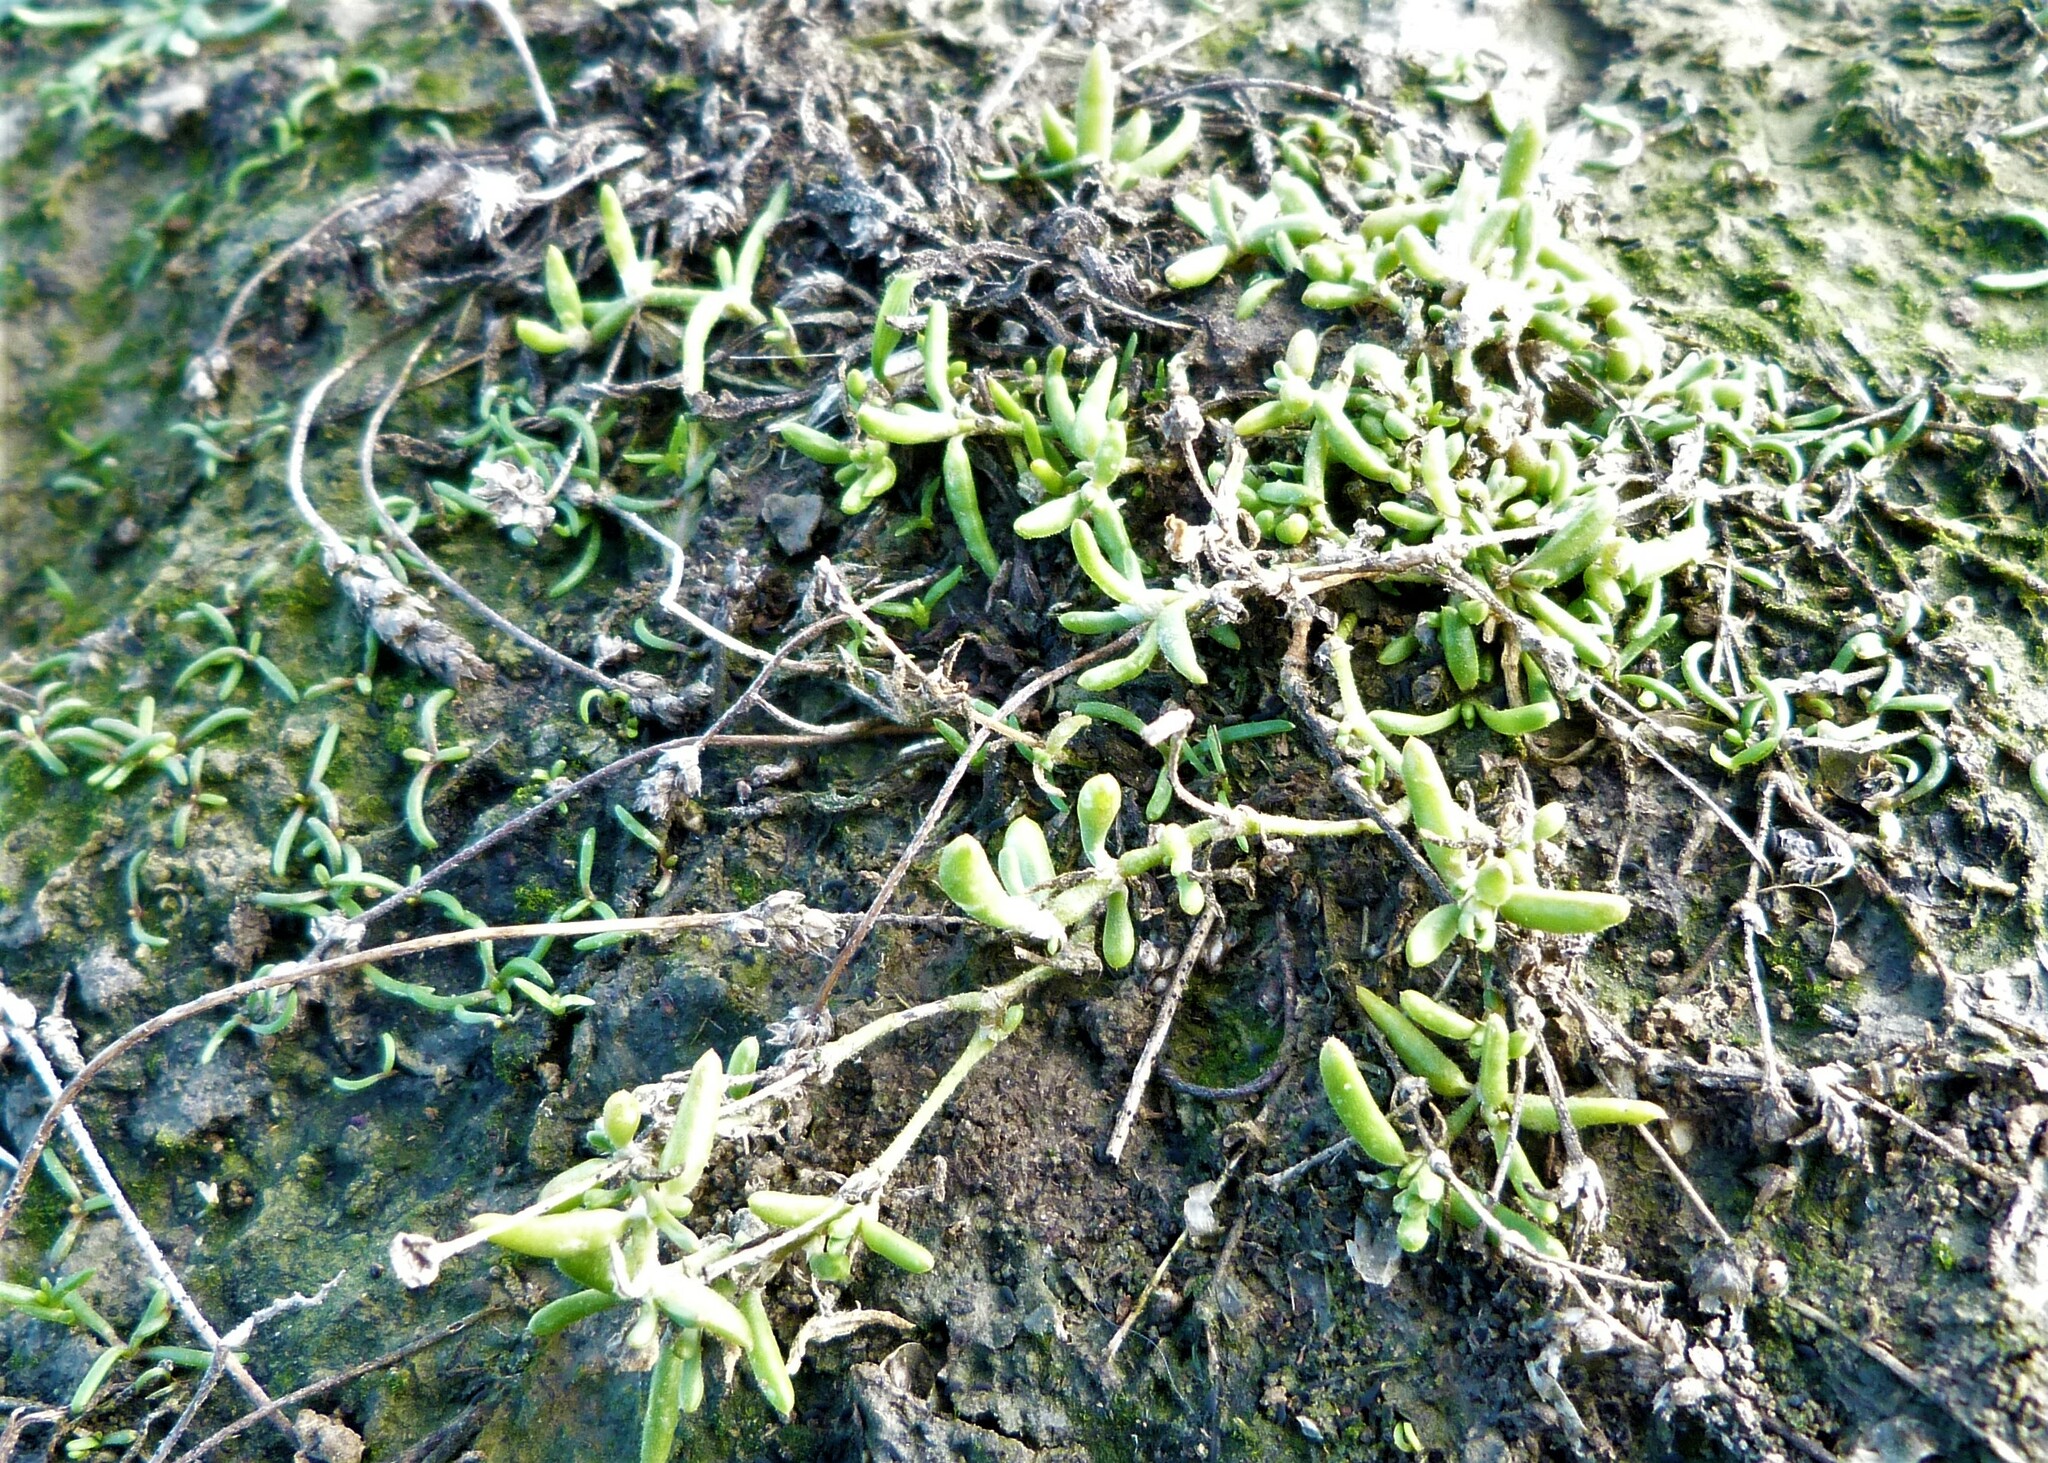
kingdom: Plantae
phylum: Tracheophyta
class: Magnoliopsida
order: Caryophyllales
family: Caryophyllaceae
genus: Spergularia
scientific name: Spergularia media
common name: Greater sea-spurrey
